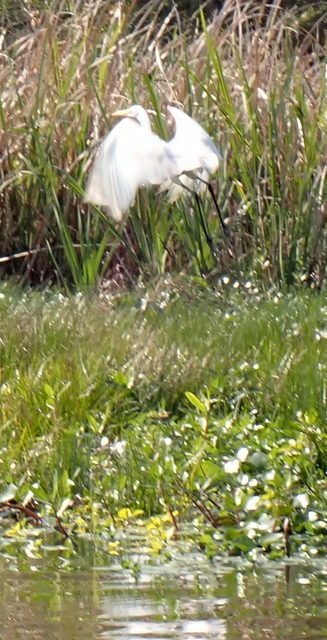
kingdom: Animalia
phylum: Chordata
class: Aves
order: Pelecaniformes
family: Ardeidae
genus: Ardea
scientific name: Ardea alba
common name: Great egret
